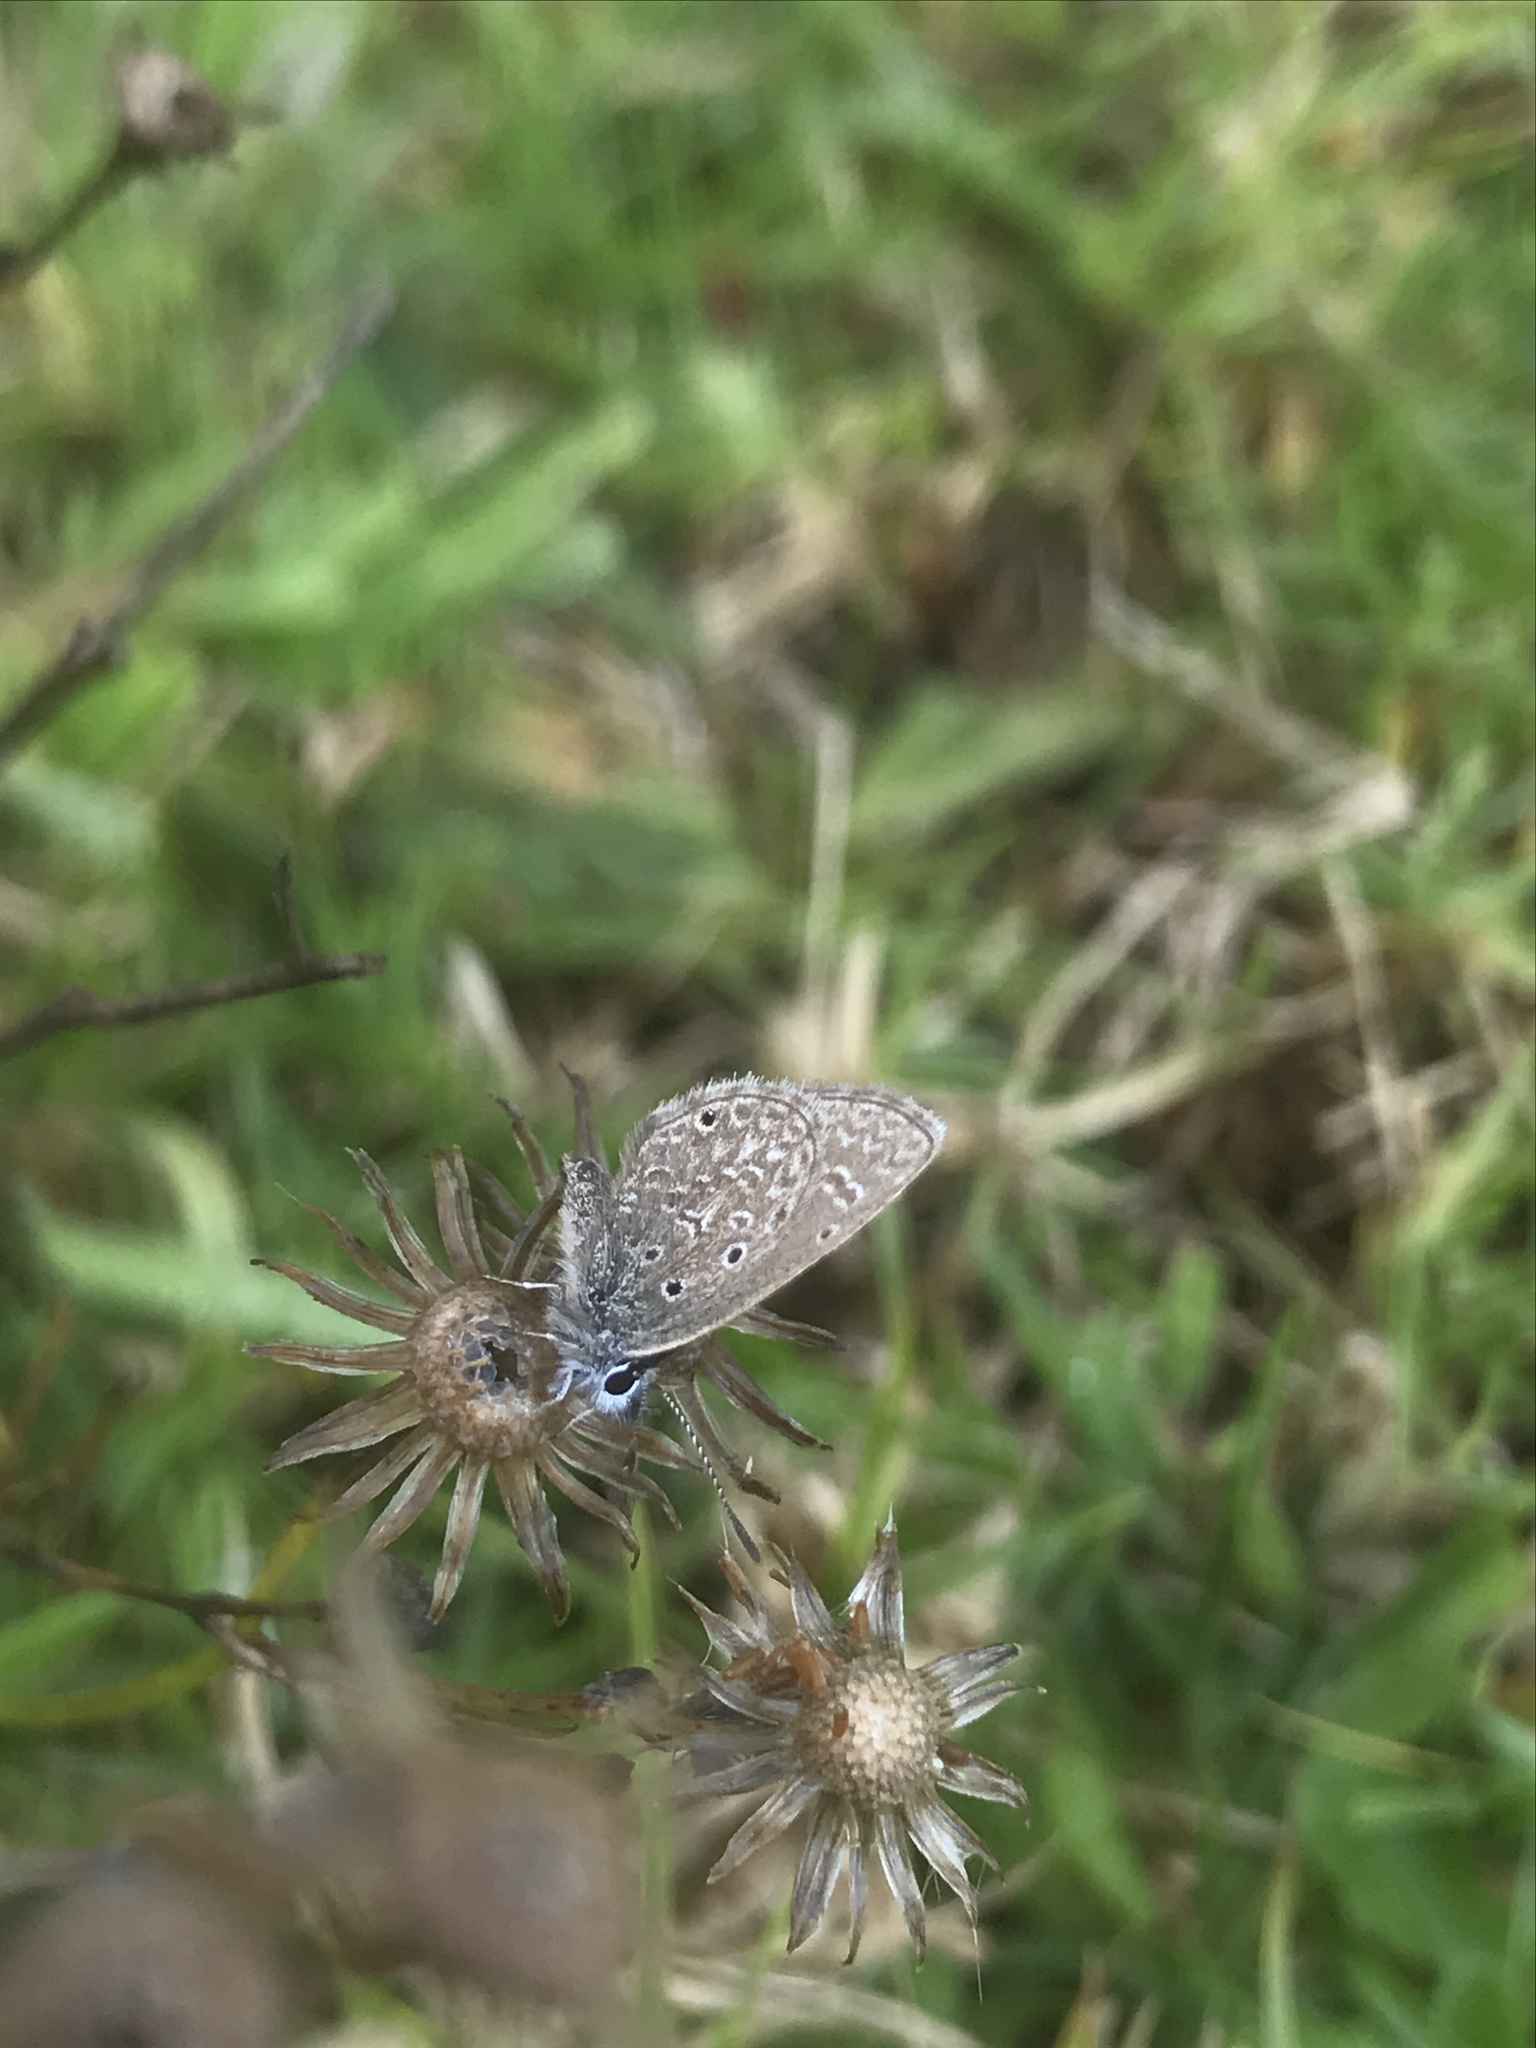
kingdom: Animalia
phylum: Arthropoda
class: Insecta
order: Lepidoptera
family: Lycaenidae
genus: Hemiargus
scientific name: Hemiargus hanno
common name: Common blue
